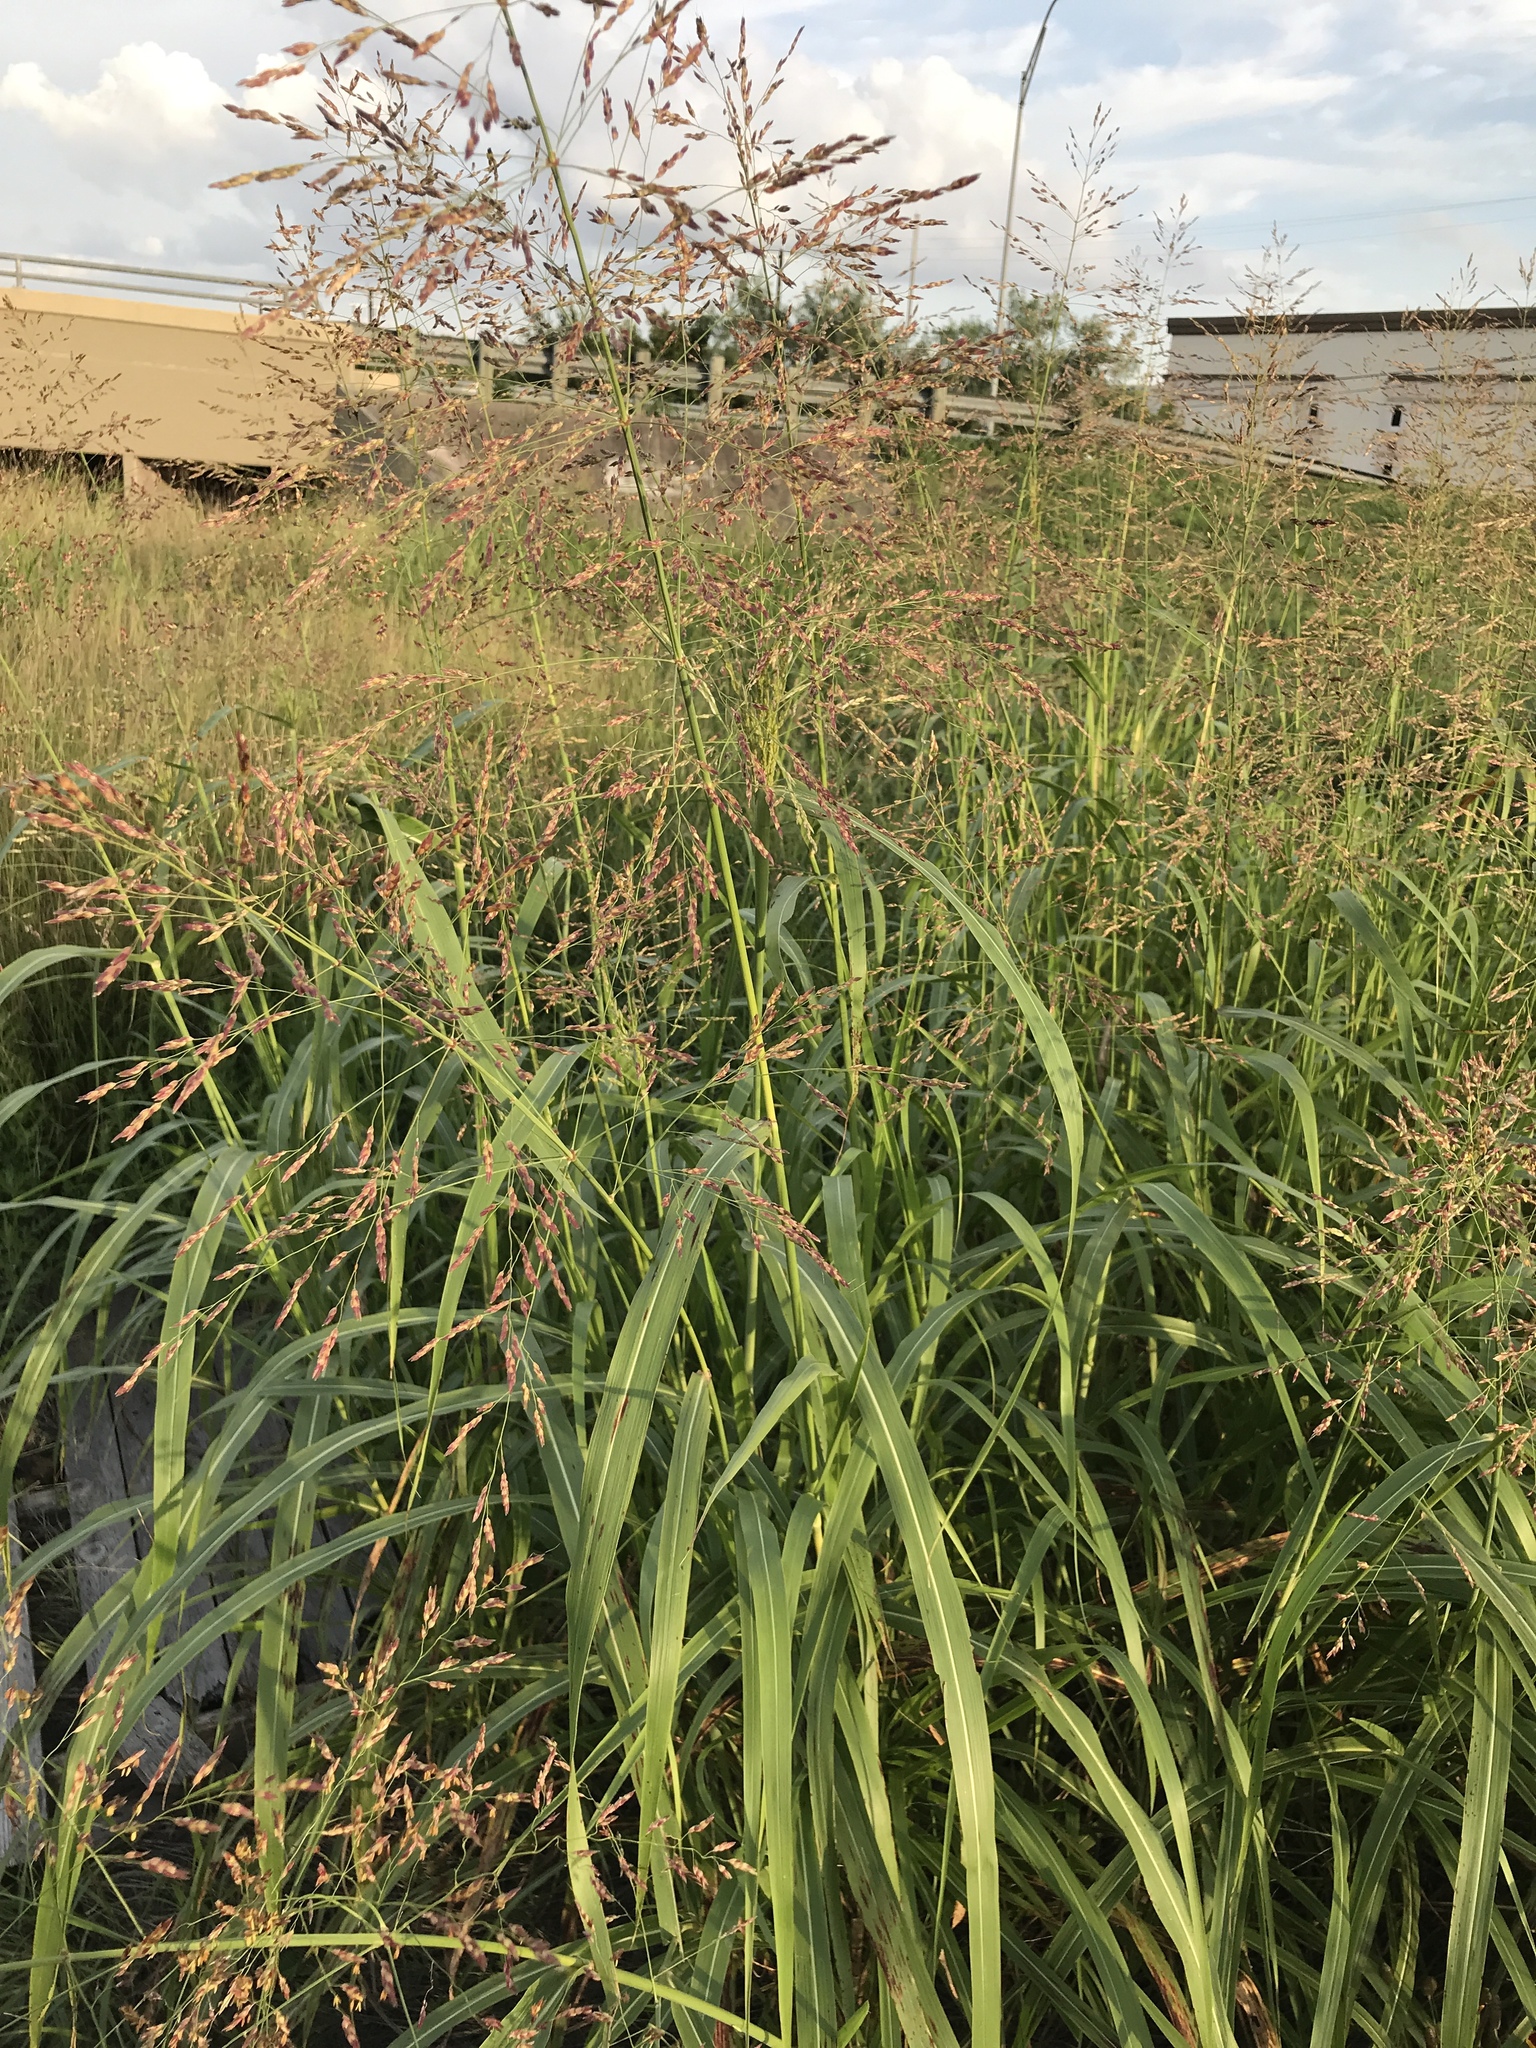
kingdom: Plantae
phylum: Tracheophyta
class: Liliopsida
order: Poales
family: Poaceae
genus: Sorghum
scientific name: Sorghum halepense
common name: Johnson-grass
